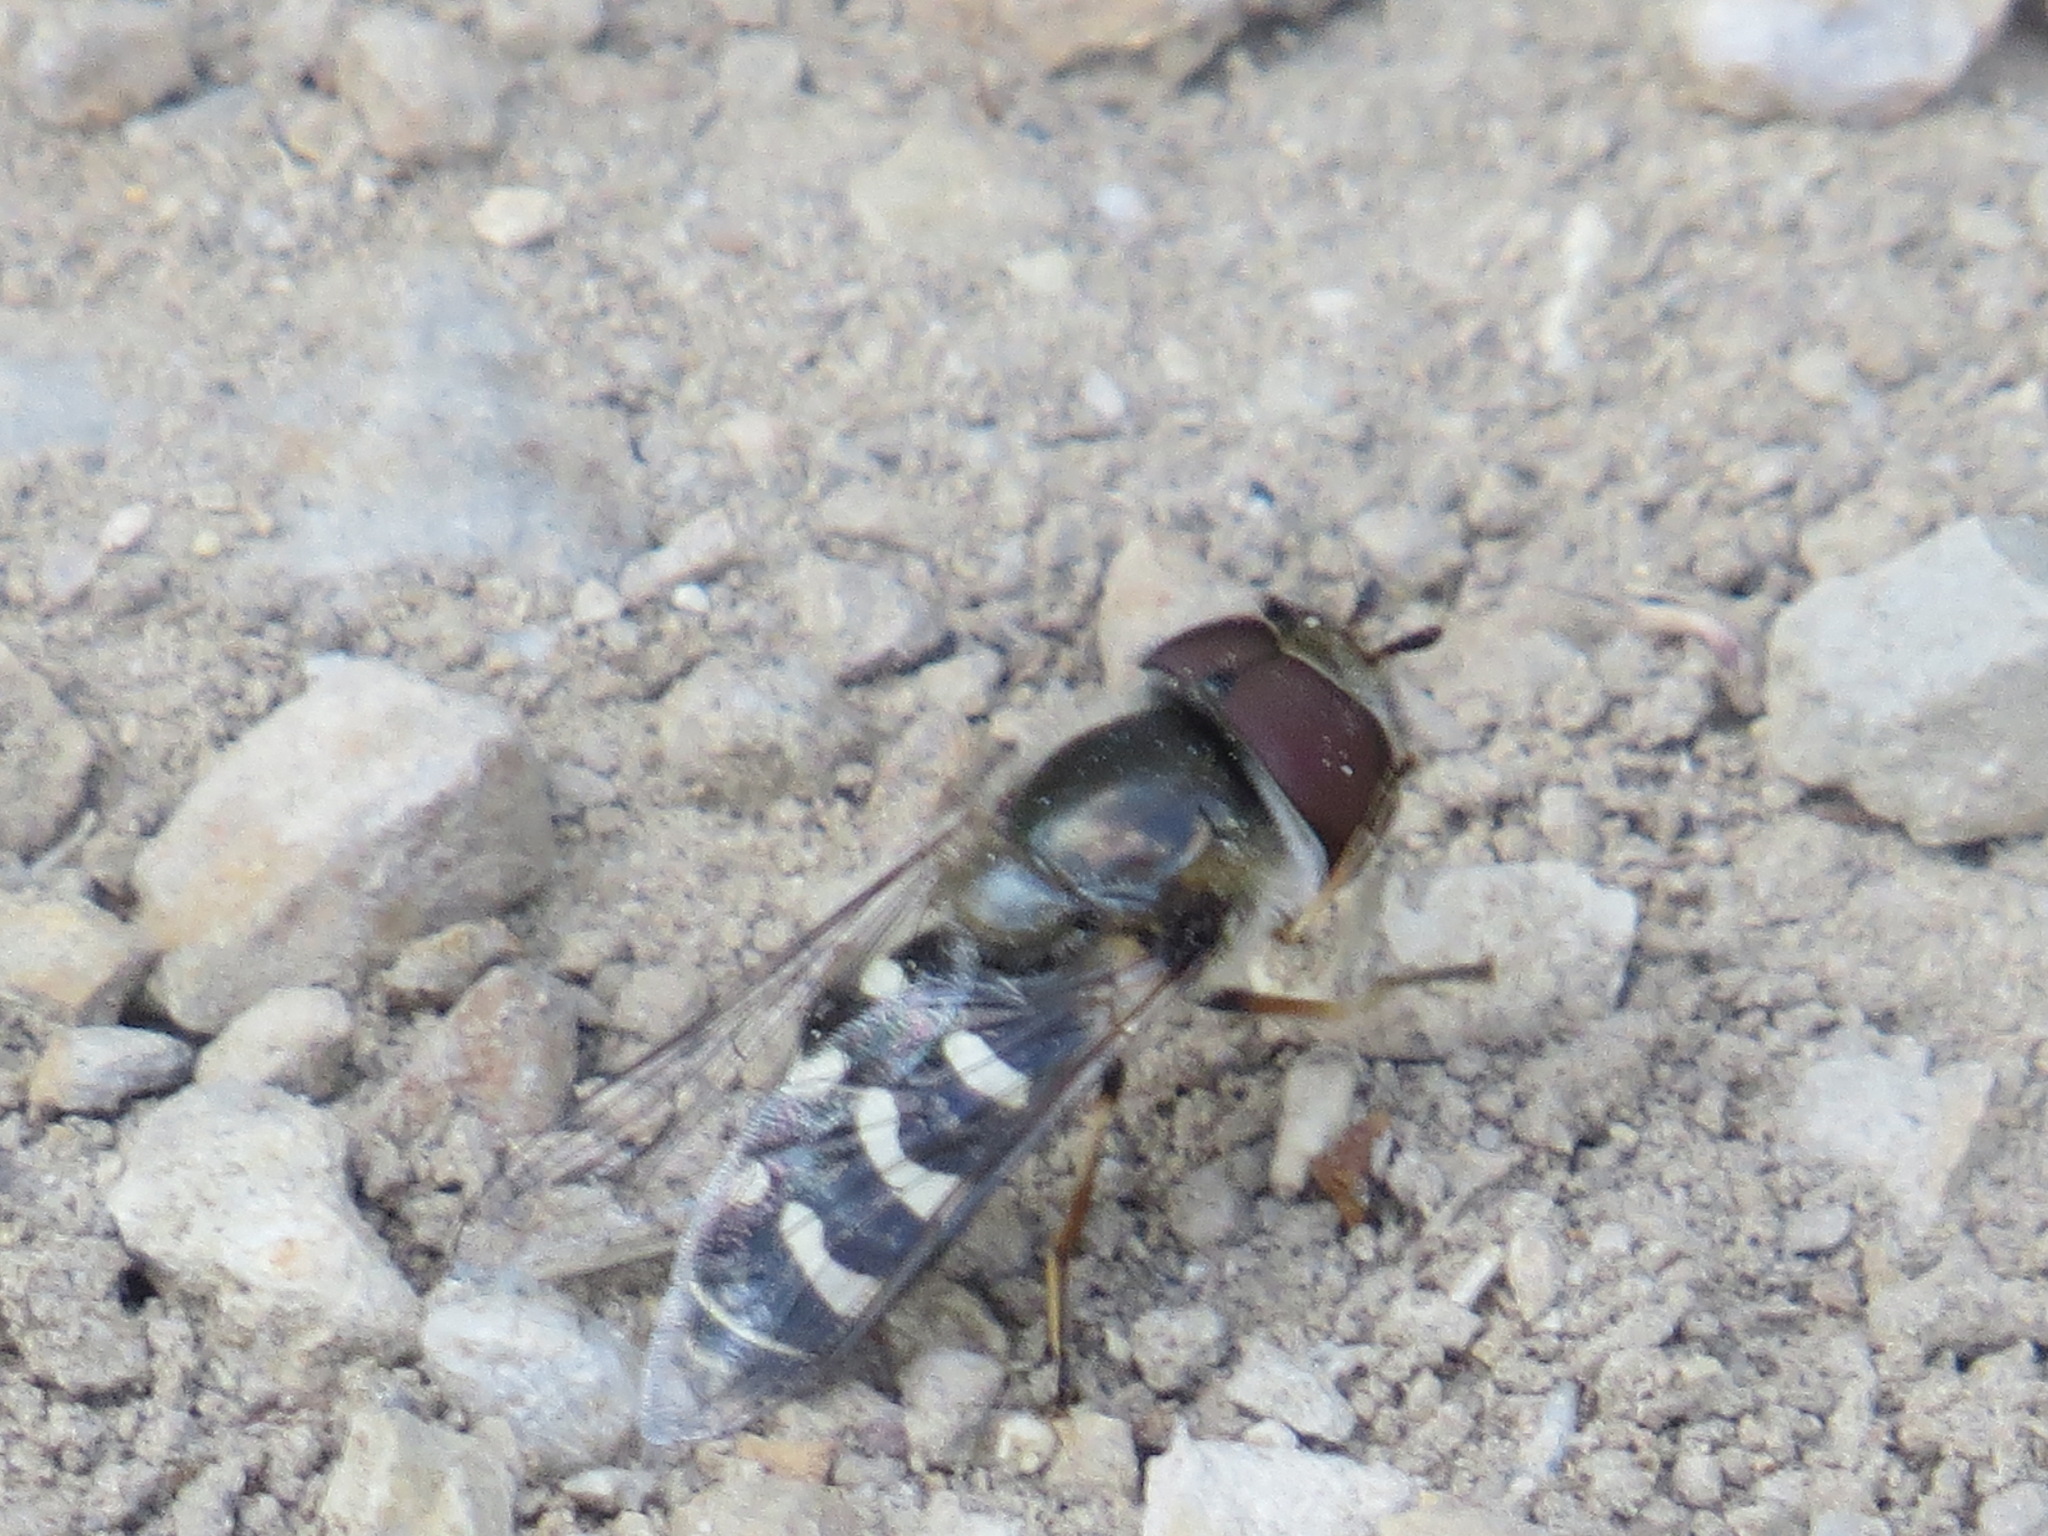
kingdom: Animalia
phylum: Arthropoda
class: Insecta
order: Diptera
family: Syrphidae
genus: Scaeva
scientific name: Scaeva affinis
